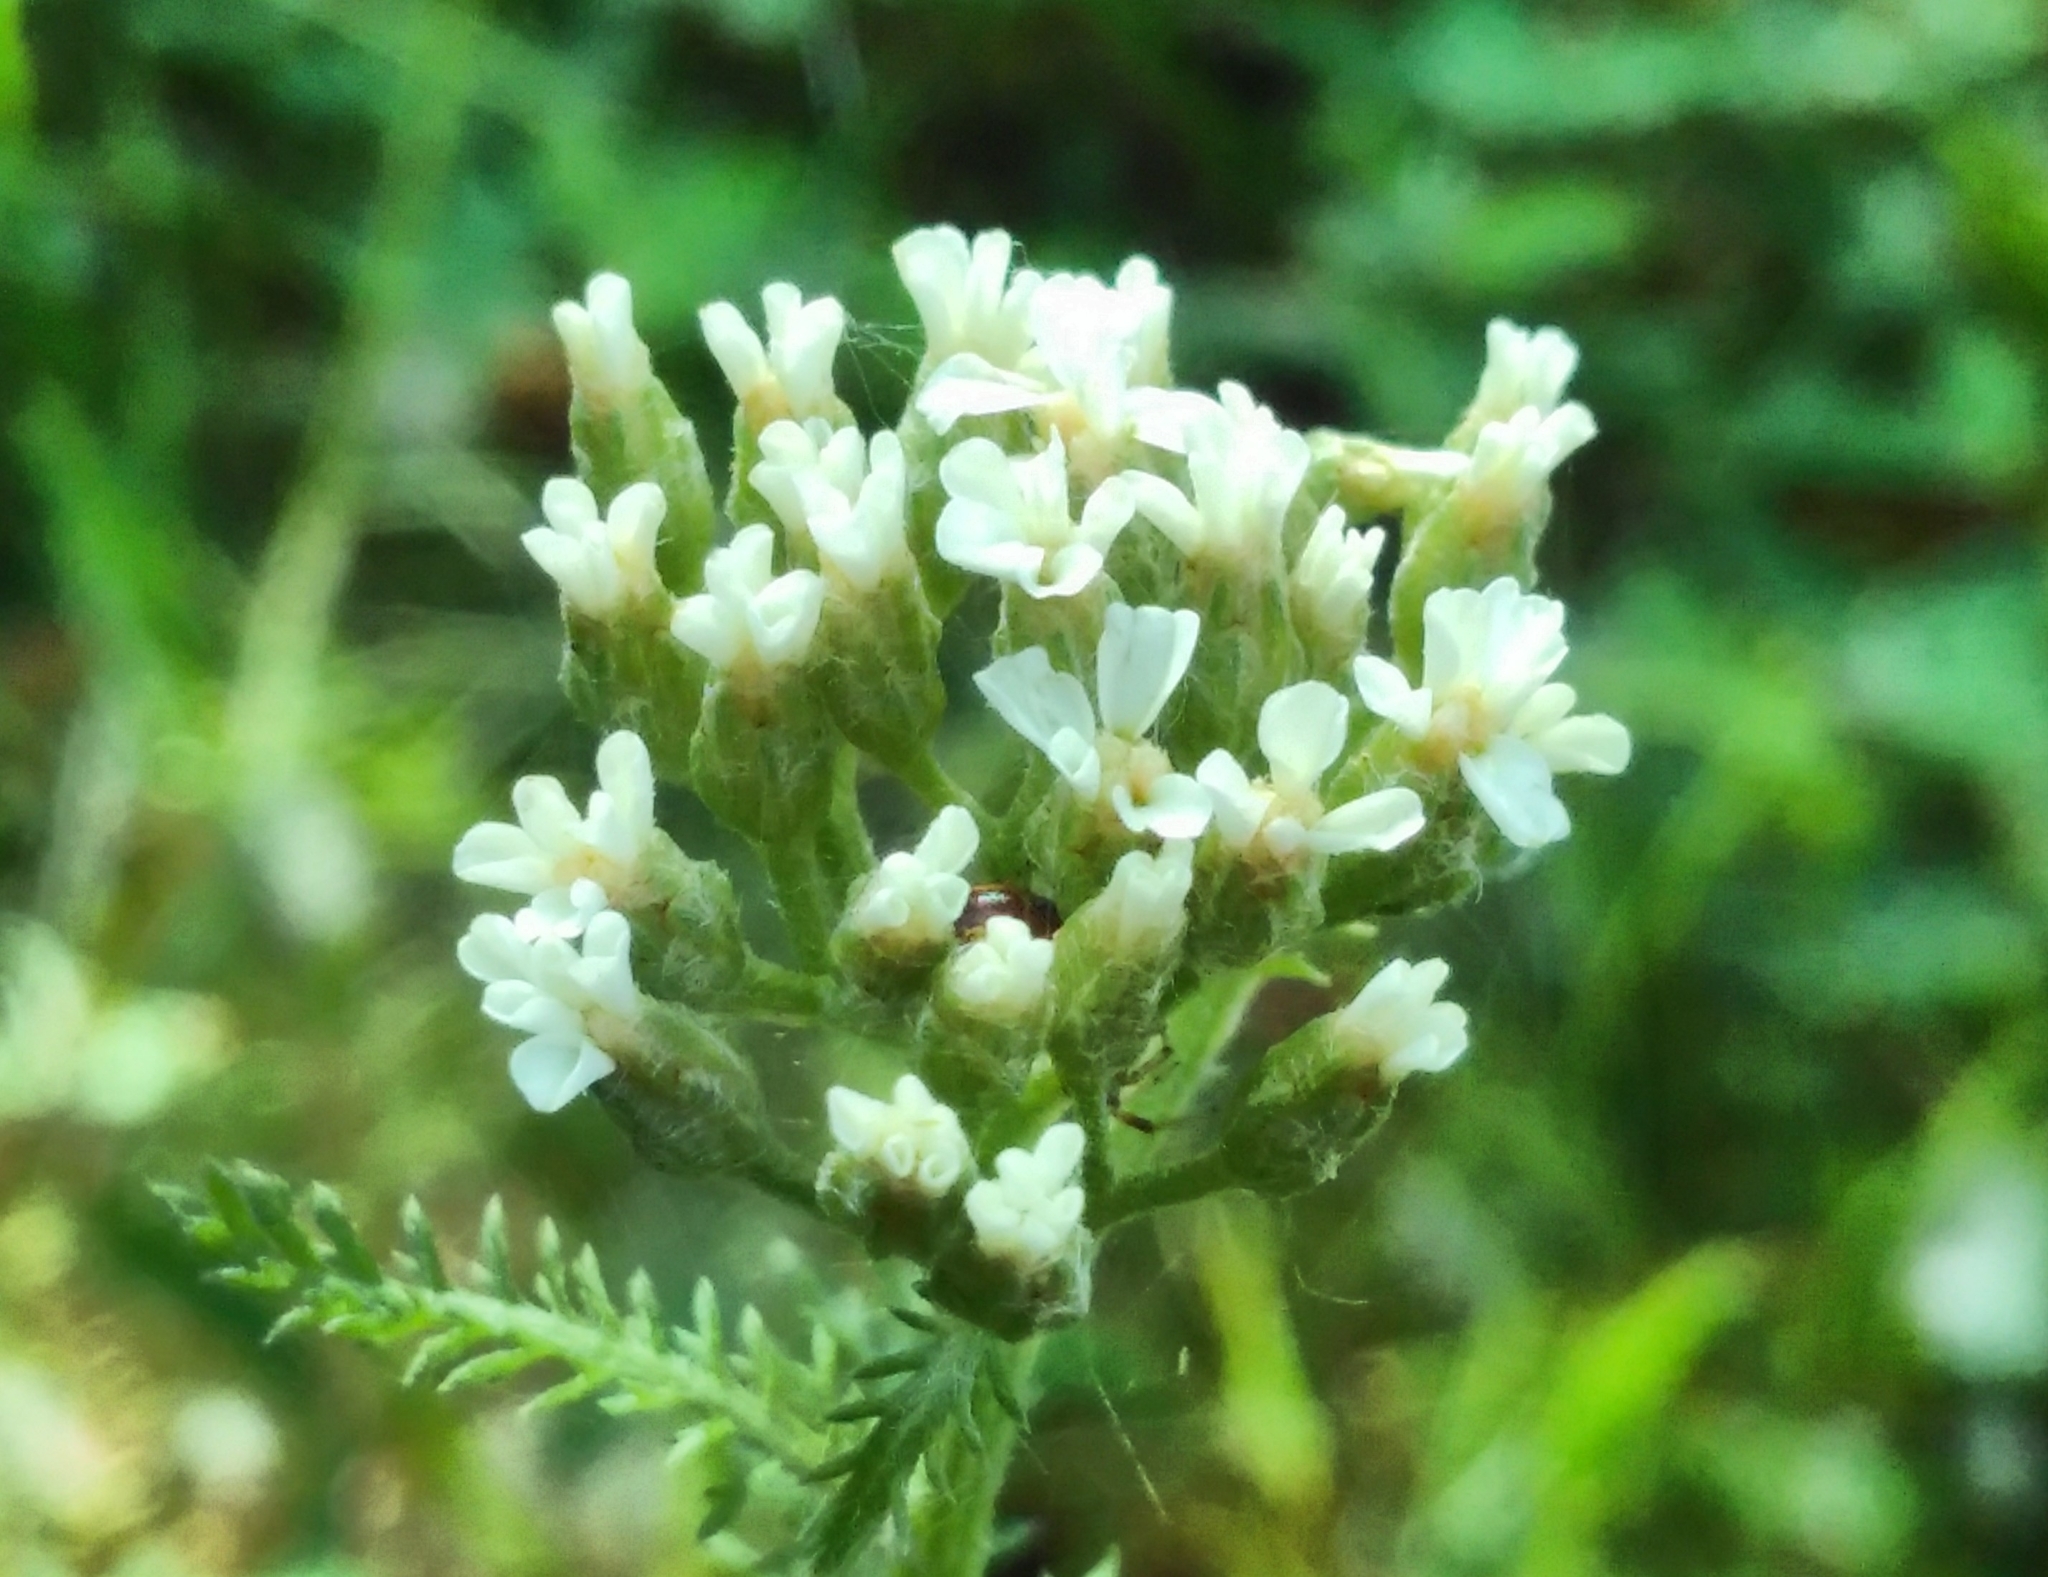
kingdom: Plantae
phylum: Tracheophyta
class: Magnoliopsida
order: Asterales
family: Asteraceae
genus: Achillea
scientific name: Achillea millefolium
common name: Yarrow
